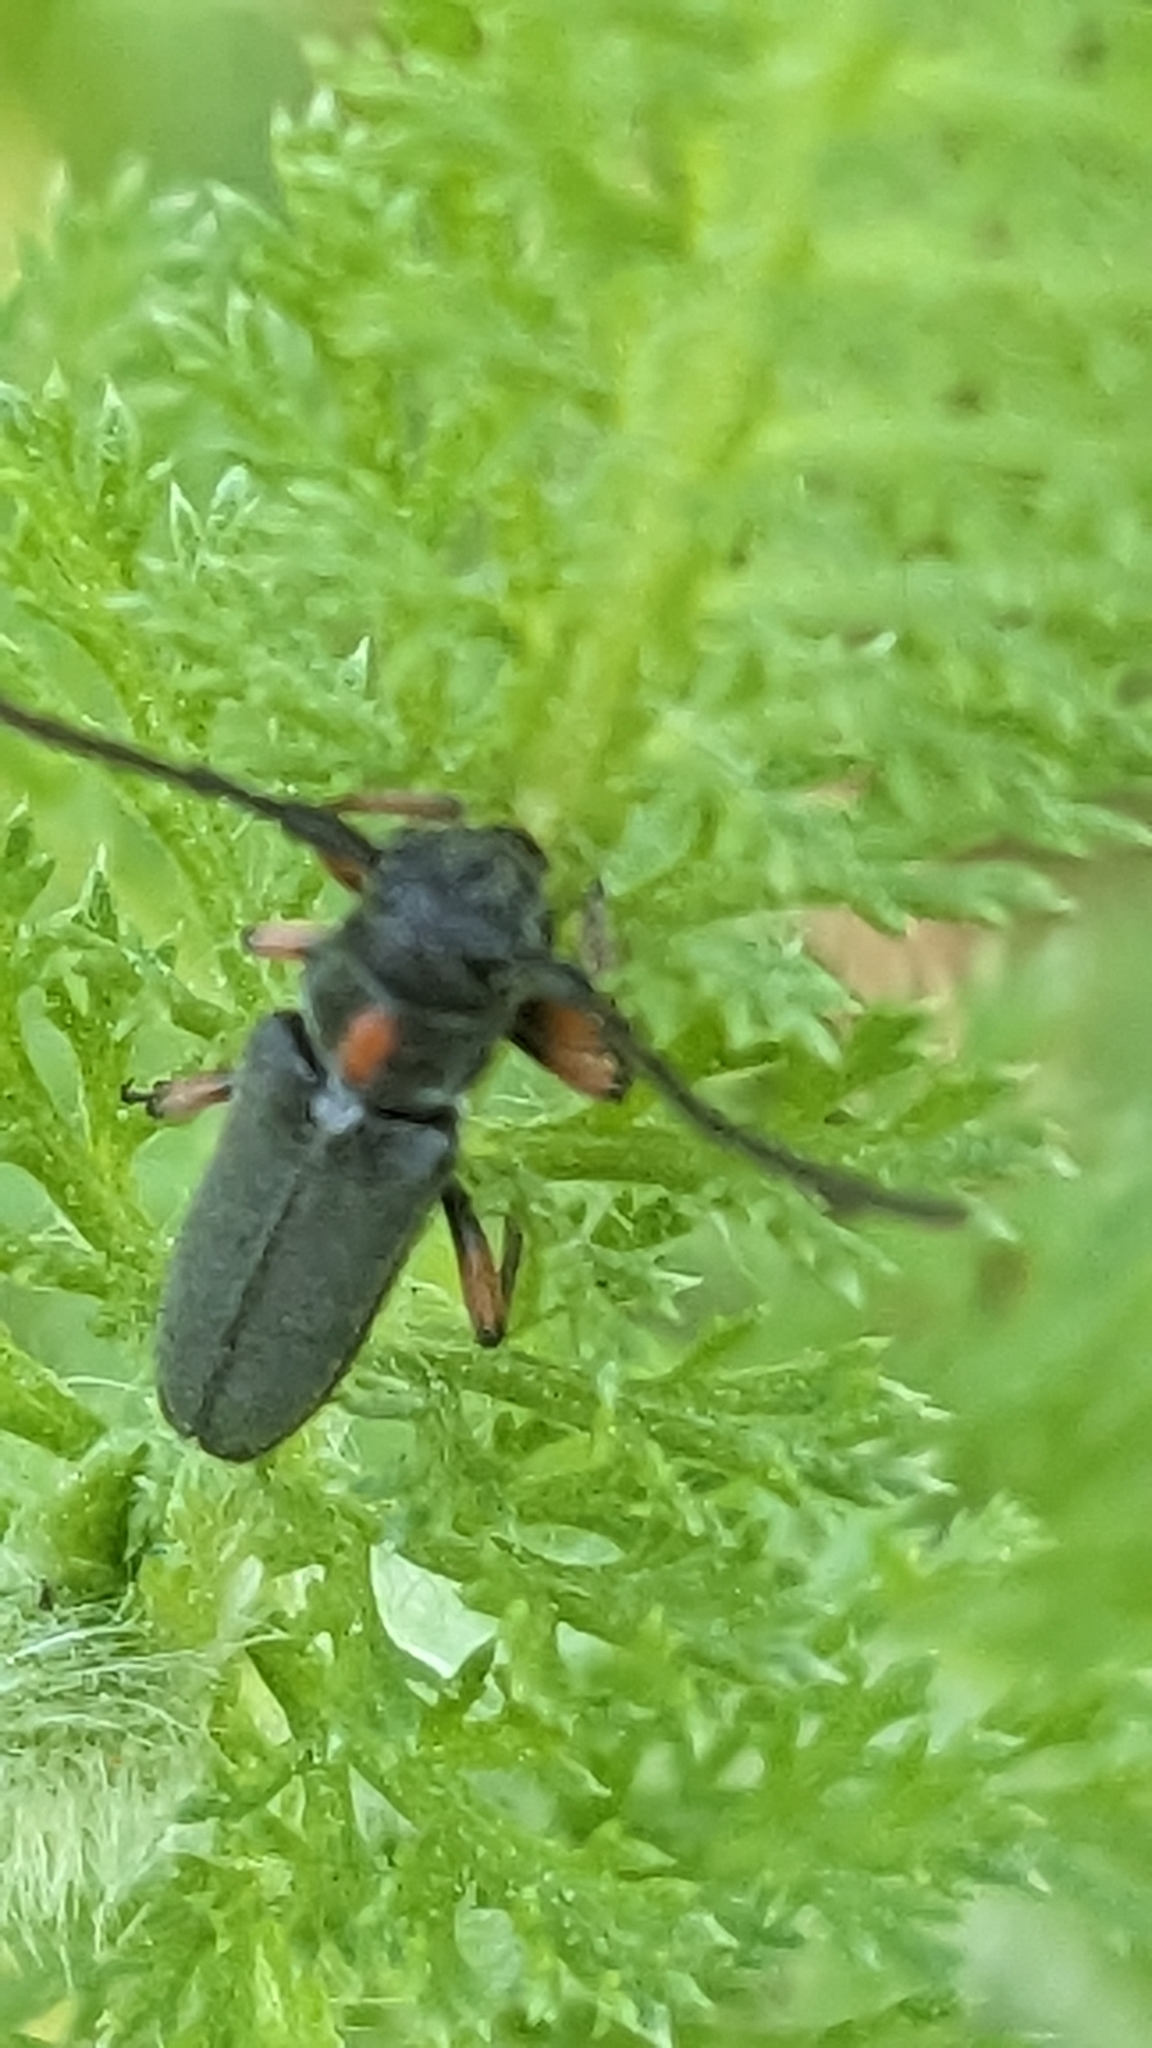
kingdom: Animalia
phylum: Arthropoda
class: Insecta
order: Coleoptera
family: Cerambycidae
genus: Phytoecia
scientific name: Phytoecia pustulata
